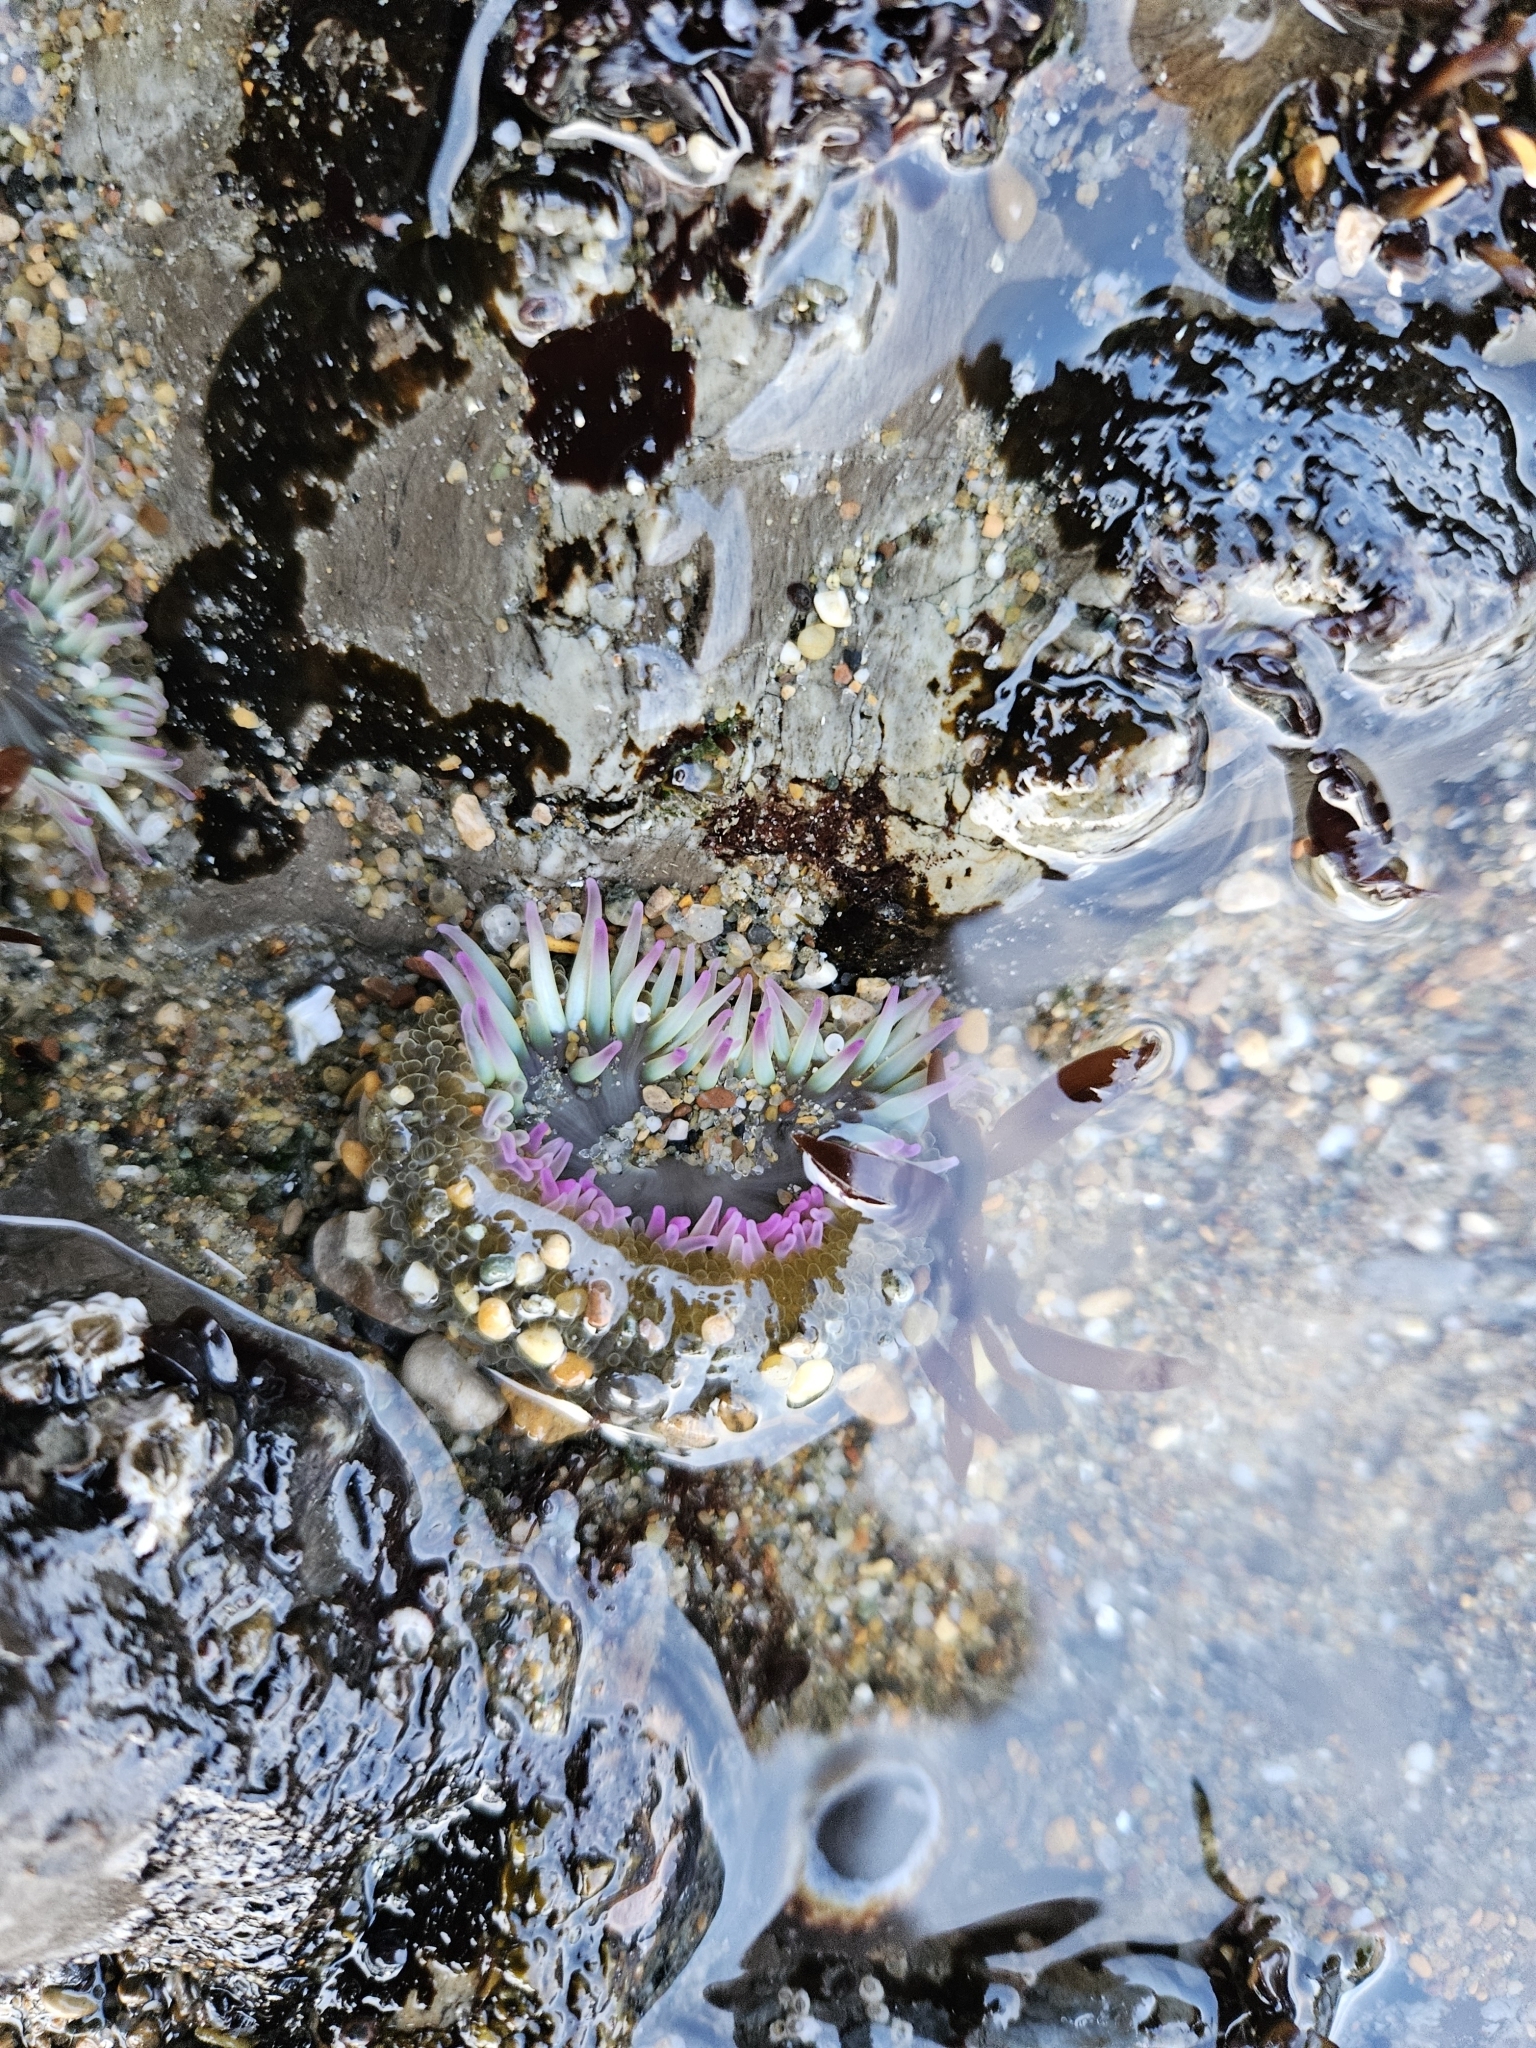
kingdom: Animalia
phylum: Cnidaria
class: Anthozoa
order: Actiniaria
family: Actiniidae
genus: Anthopleura
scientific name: Anthopleura elegantissima
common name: Clonal anemone
